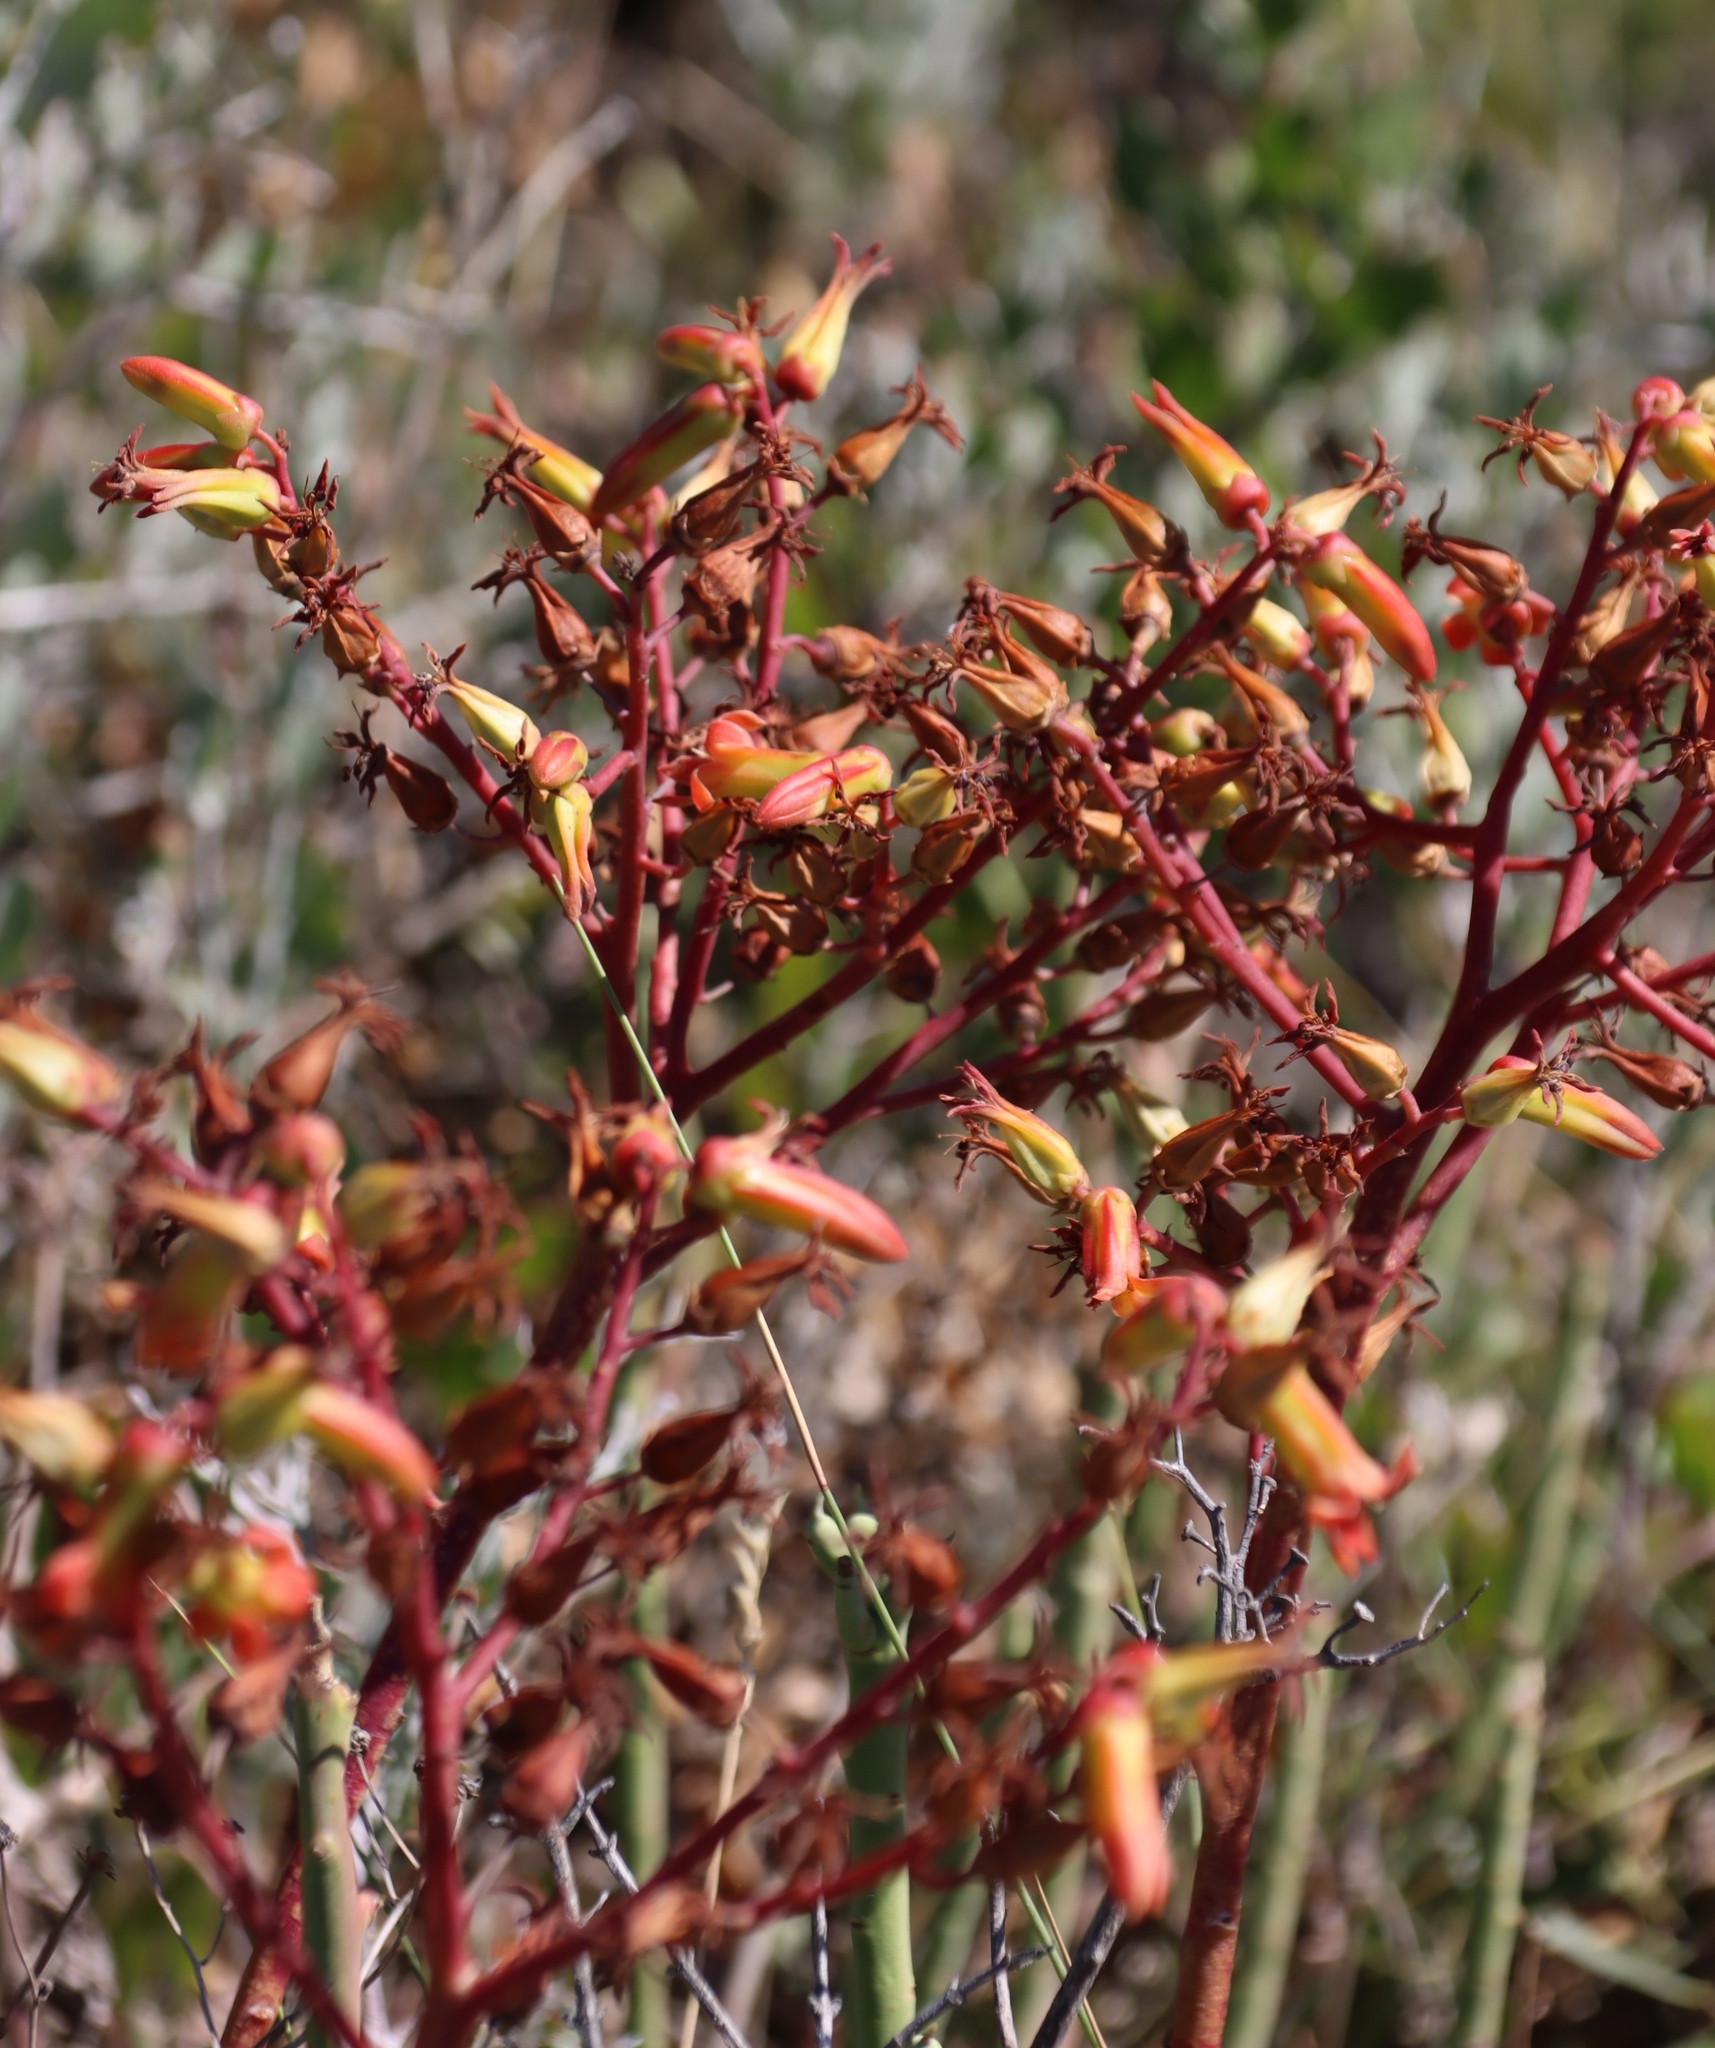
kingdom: Plantae
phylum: Tracheophyta
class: Magnoliopsida
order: Saxifragales
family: Crassulaceae
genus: Tylecodon
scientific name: Tylecodon paniculatus
